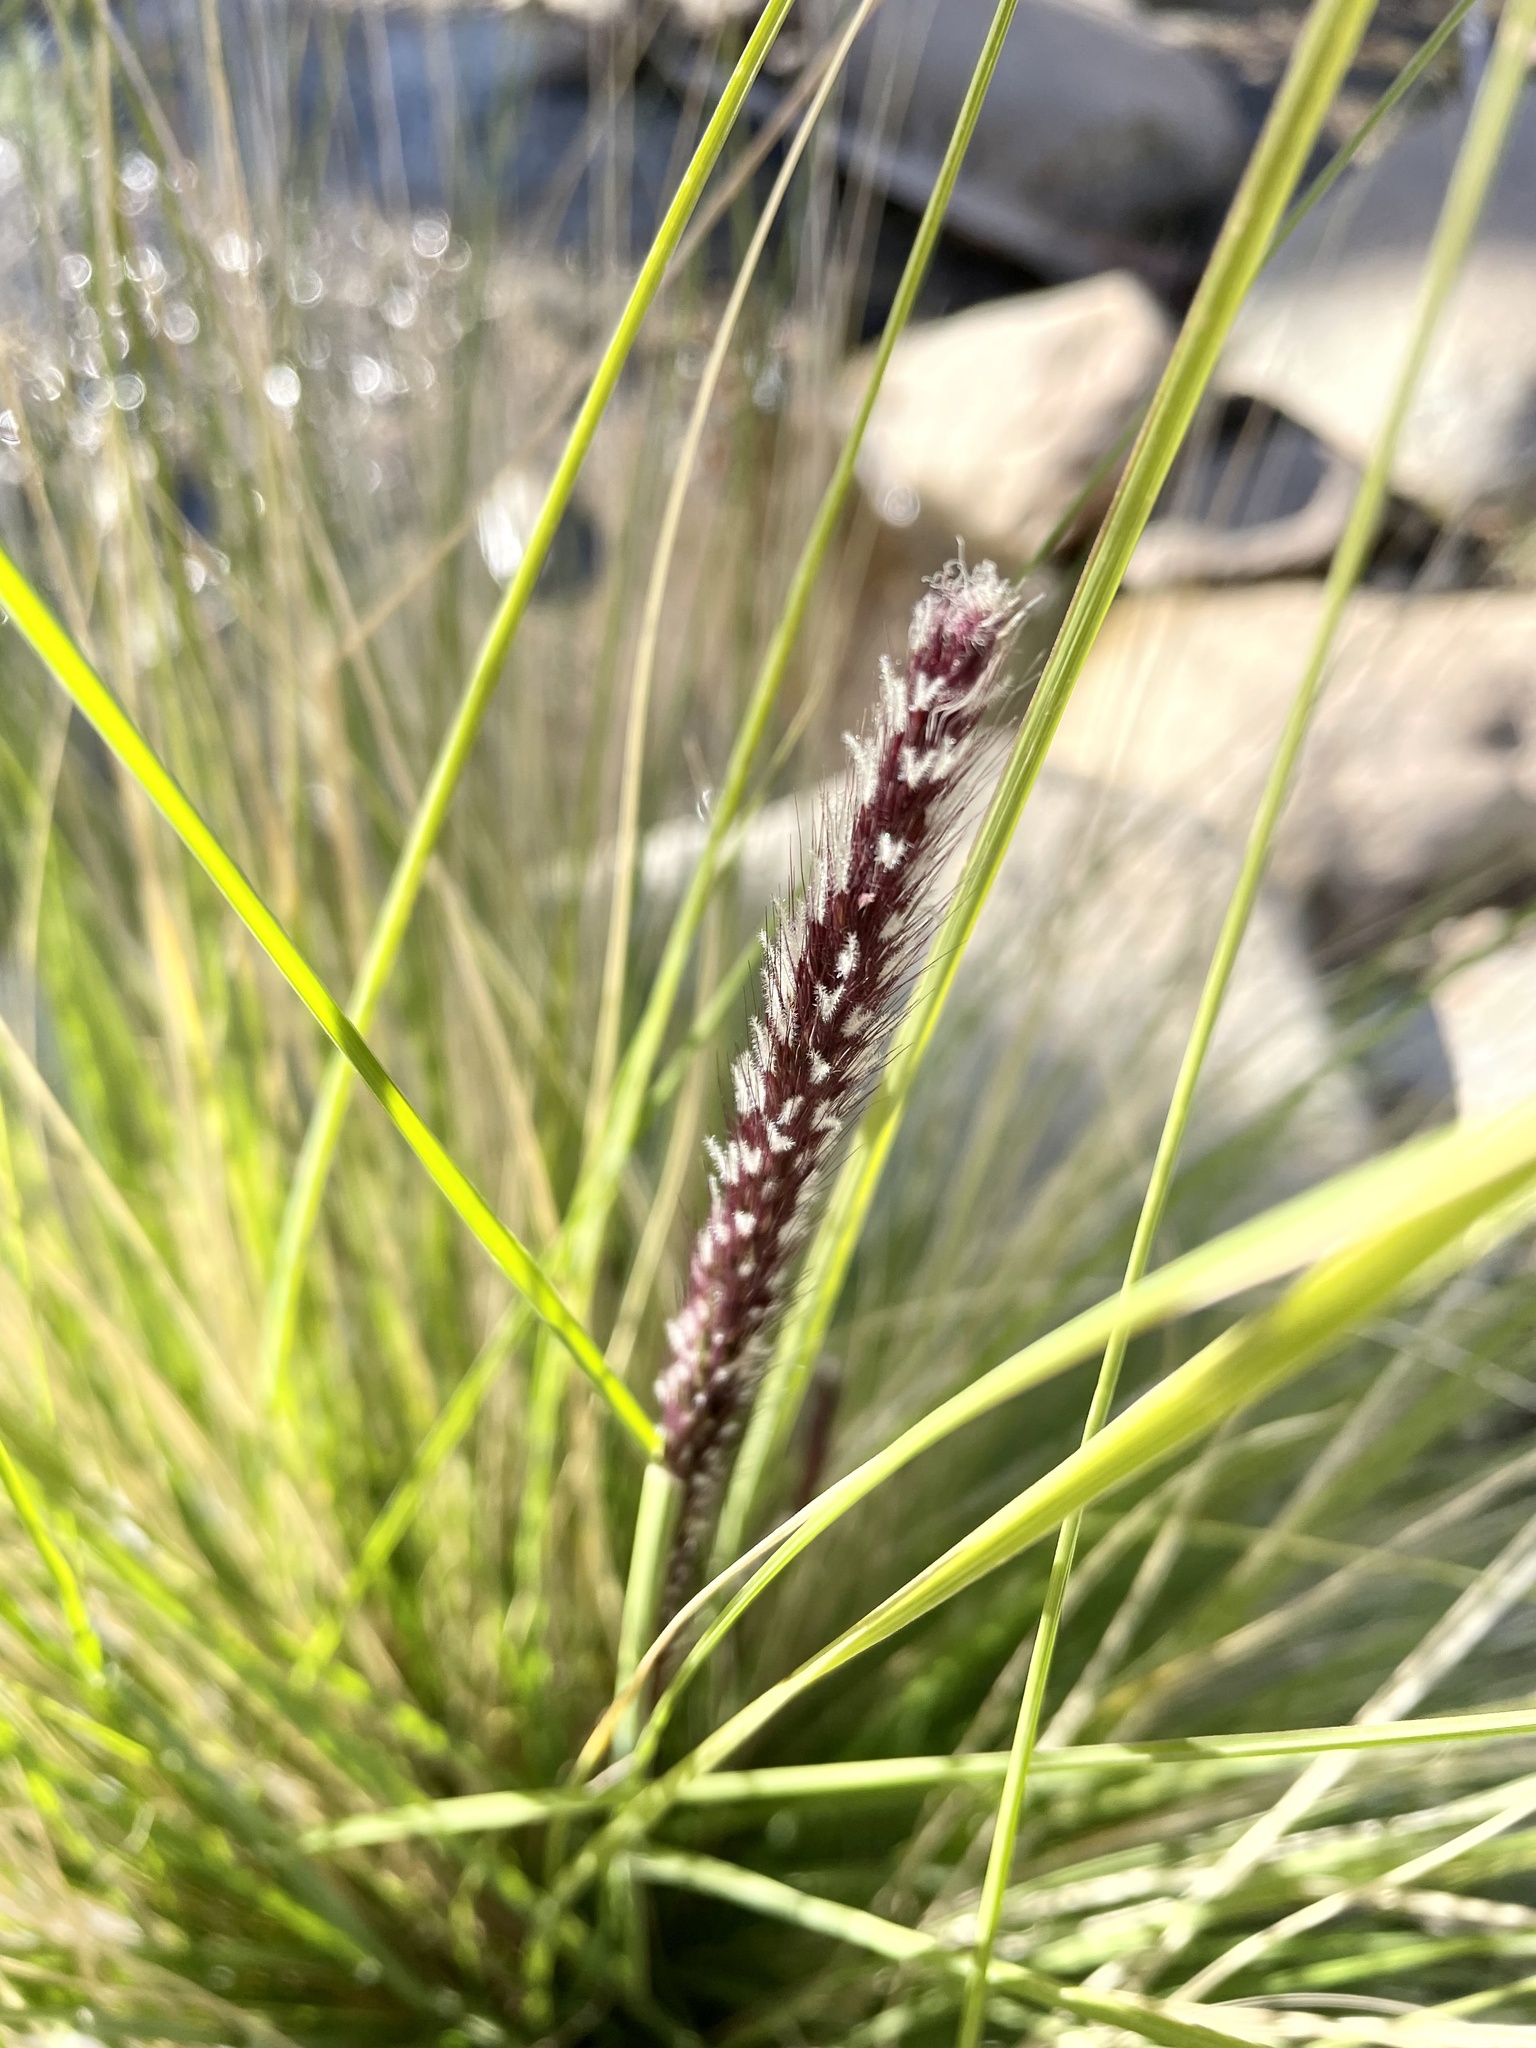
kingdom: Plantae
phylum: Tracheophyta
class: Liliopsida
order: Poales
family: Poaceae
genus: Cenchrus
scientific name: Cenchrus setaceus
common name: Crimson fountaingrass
